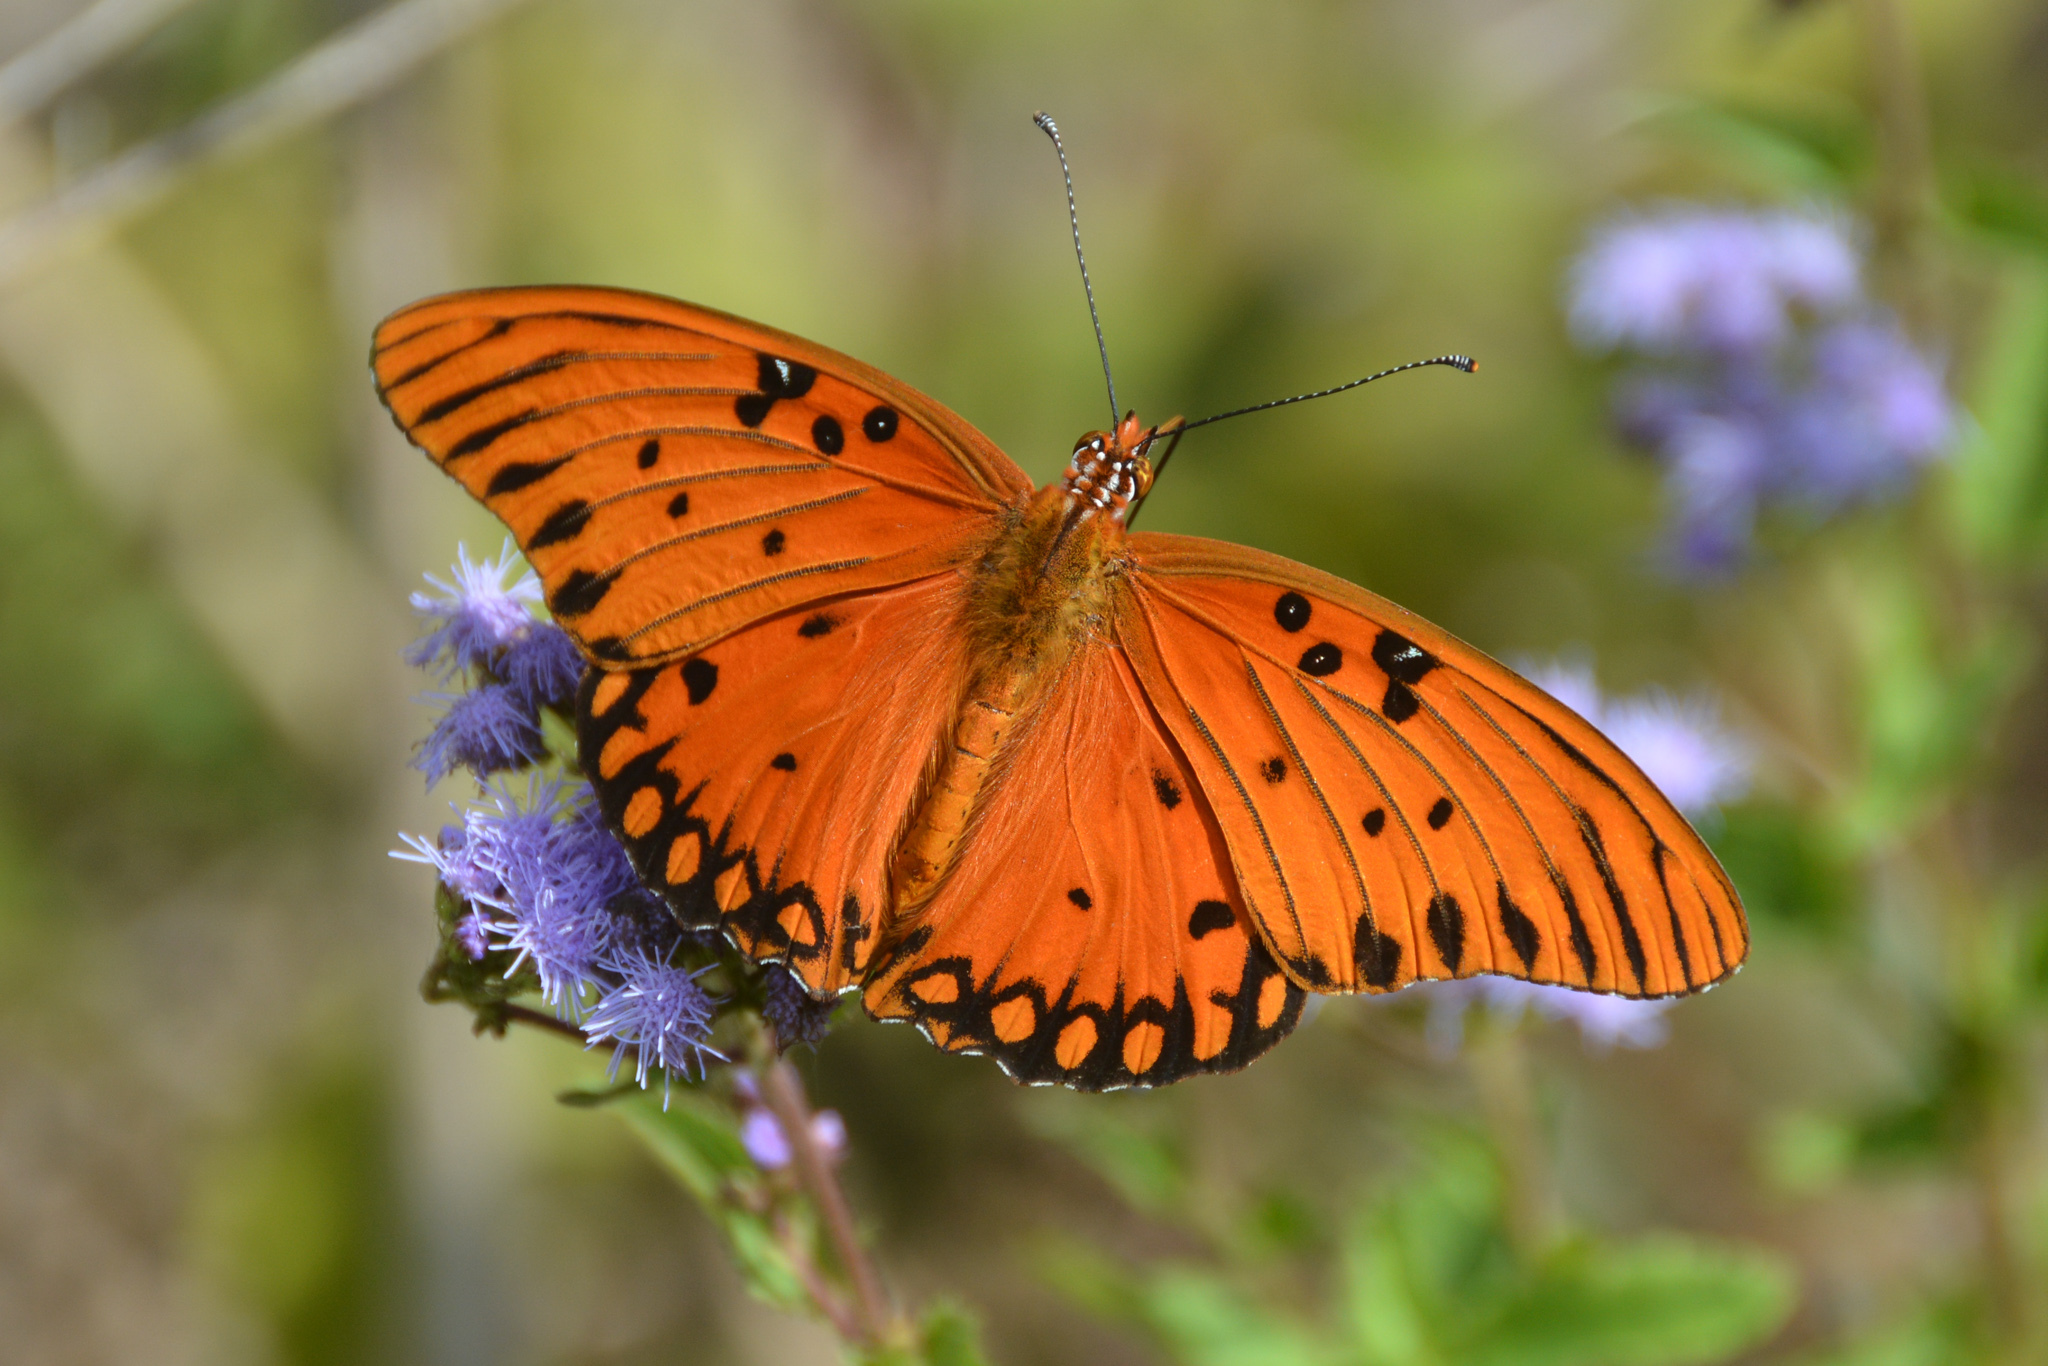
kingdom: Animalia
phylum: Arthropoda
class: Insecta
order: Lepidoptera
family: Nymphalidae
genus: Dione
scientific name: Dione vanillae
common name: Gulf fritillary
